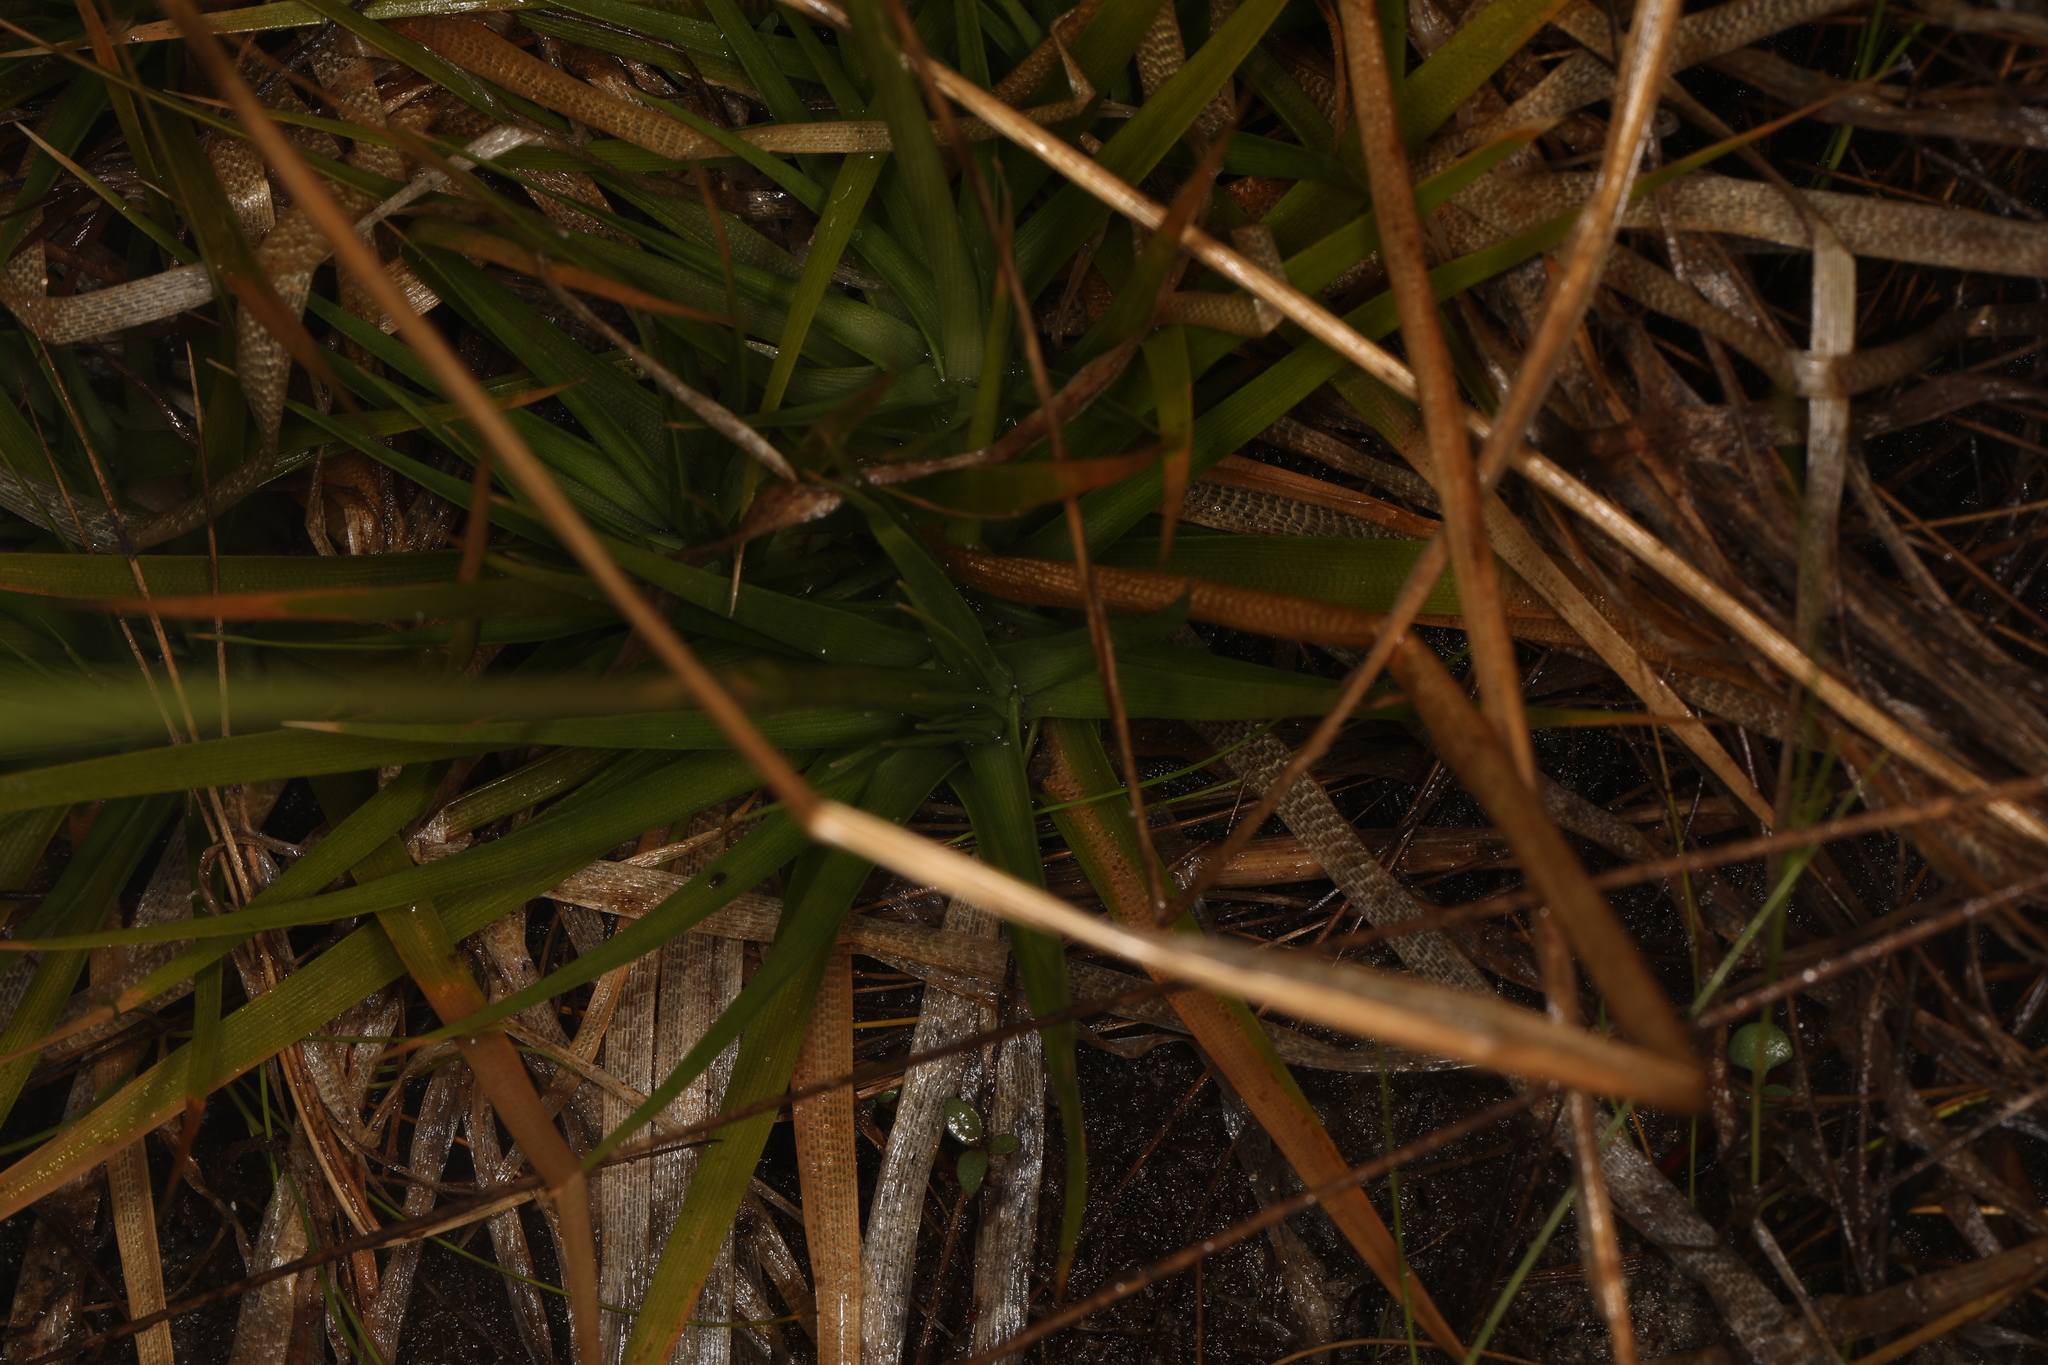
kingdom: Plantae
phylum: Tracheophyta
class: Liliopsida
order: Poales
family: Eriocaulaceae
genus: Eriocaulon
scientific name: Eriocaulon compressum
